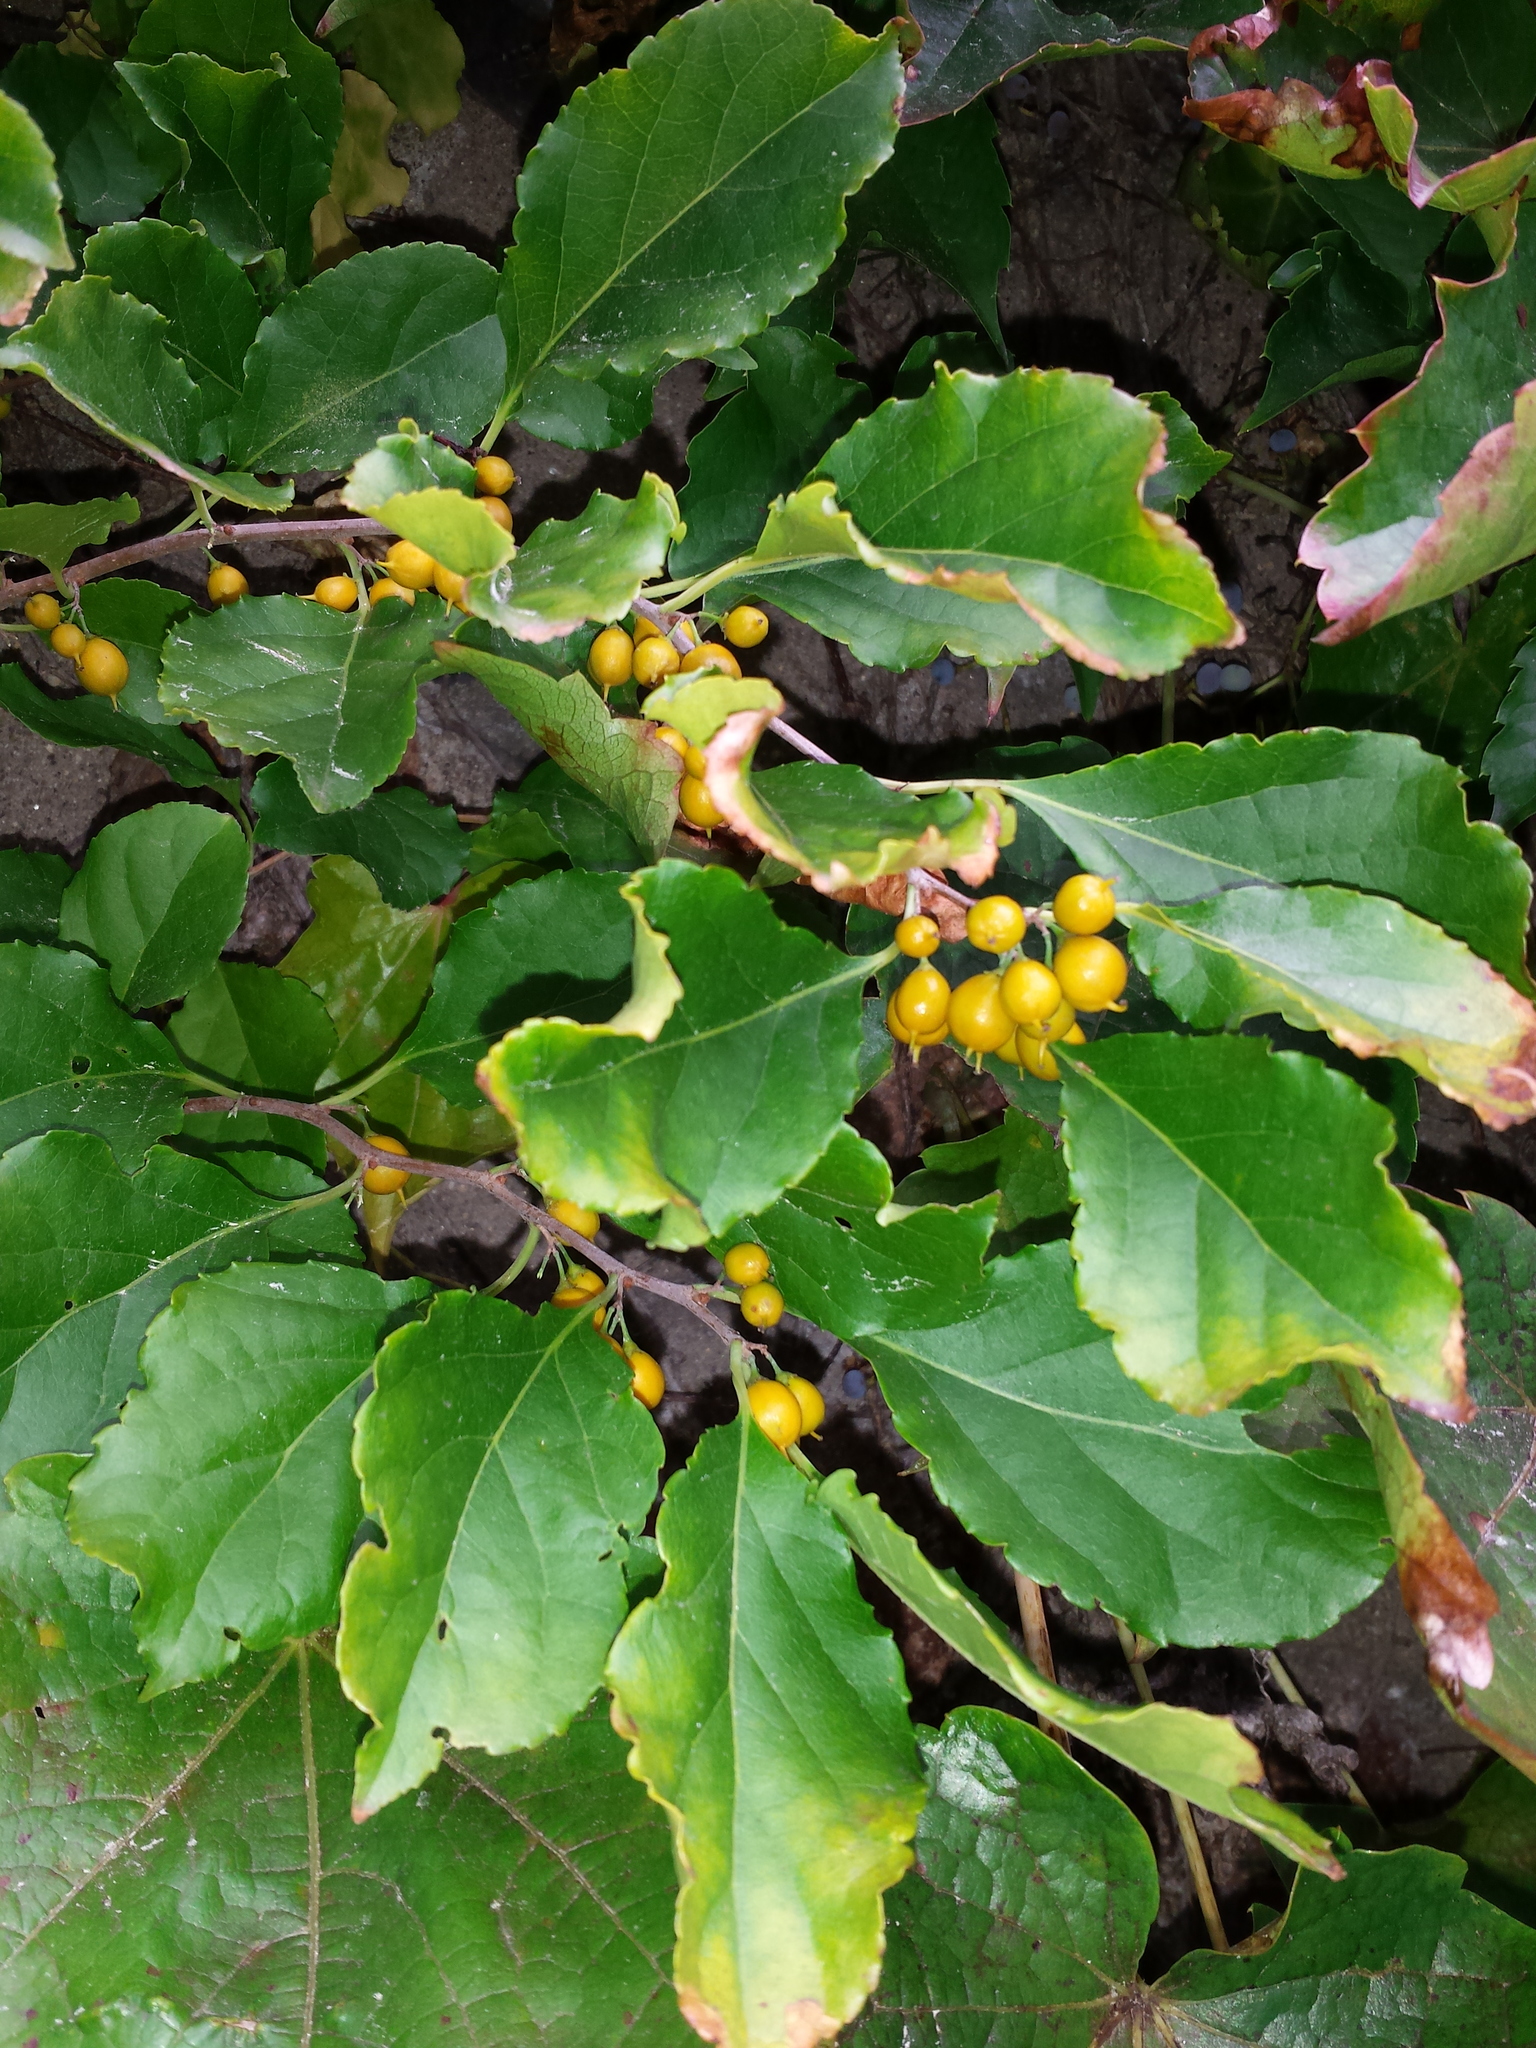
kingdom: Plantae
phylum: Tracheophyta
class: Magnoliopsida
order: Celastrales
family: Celastraceae
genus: Celastrus
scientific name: Celastrus orbiculatus
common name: Oriental bittersweet
